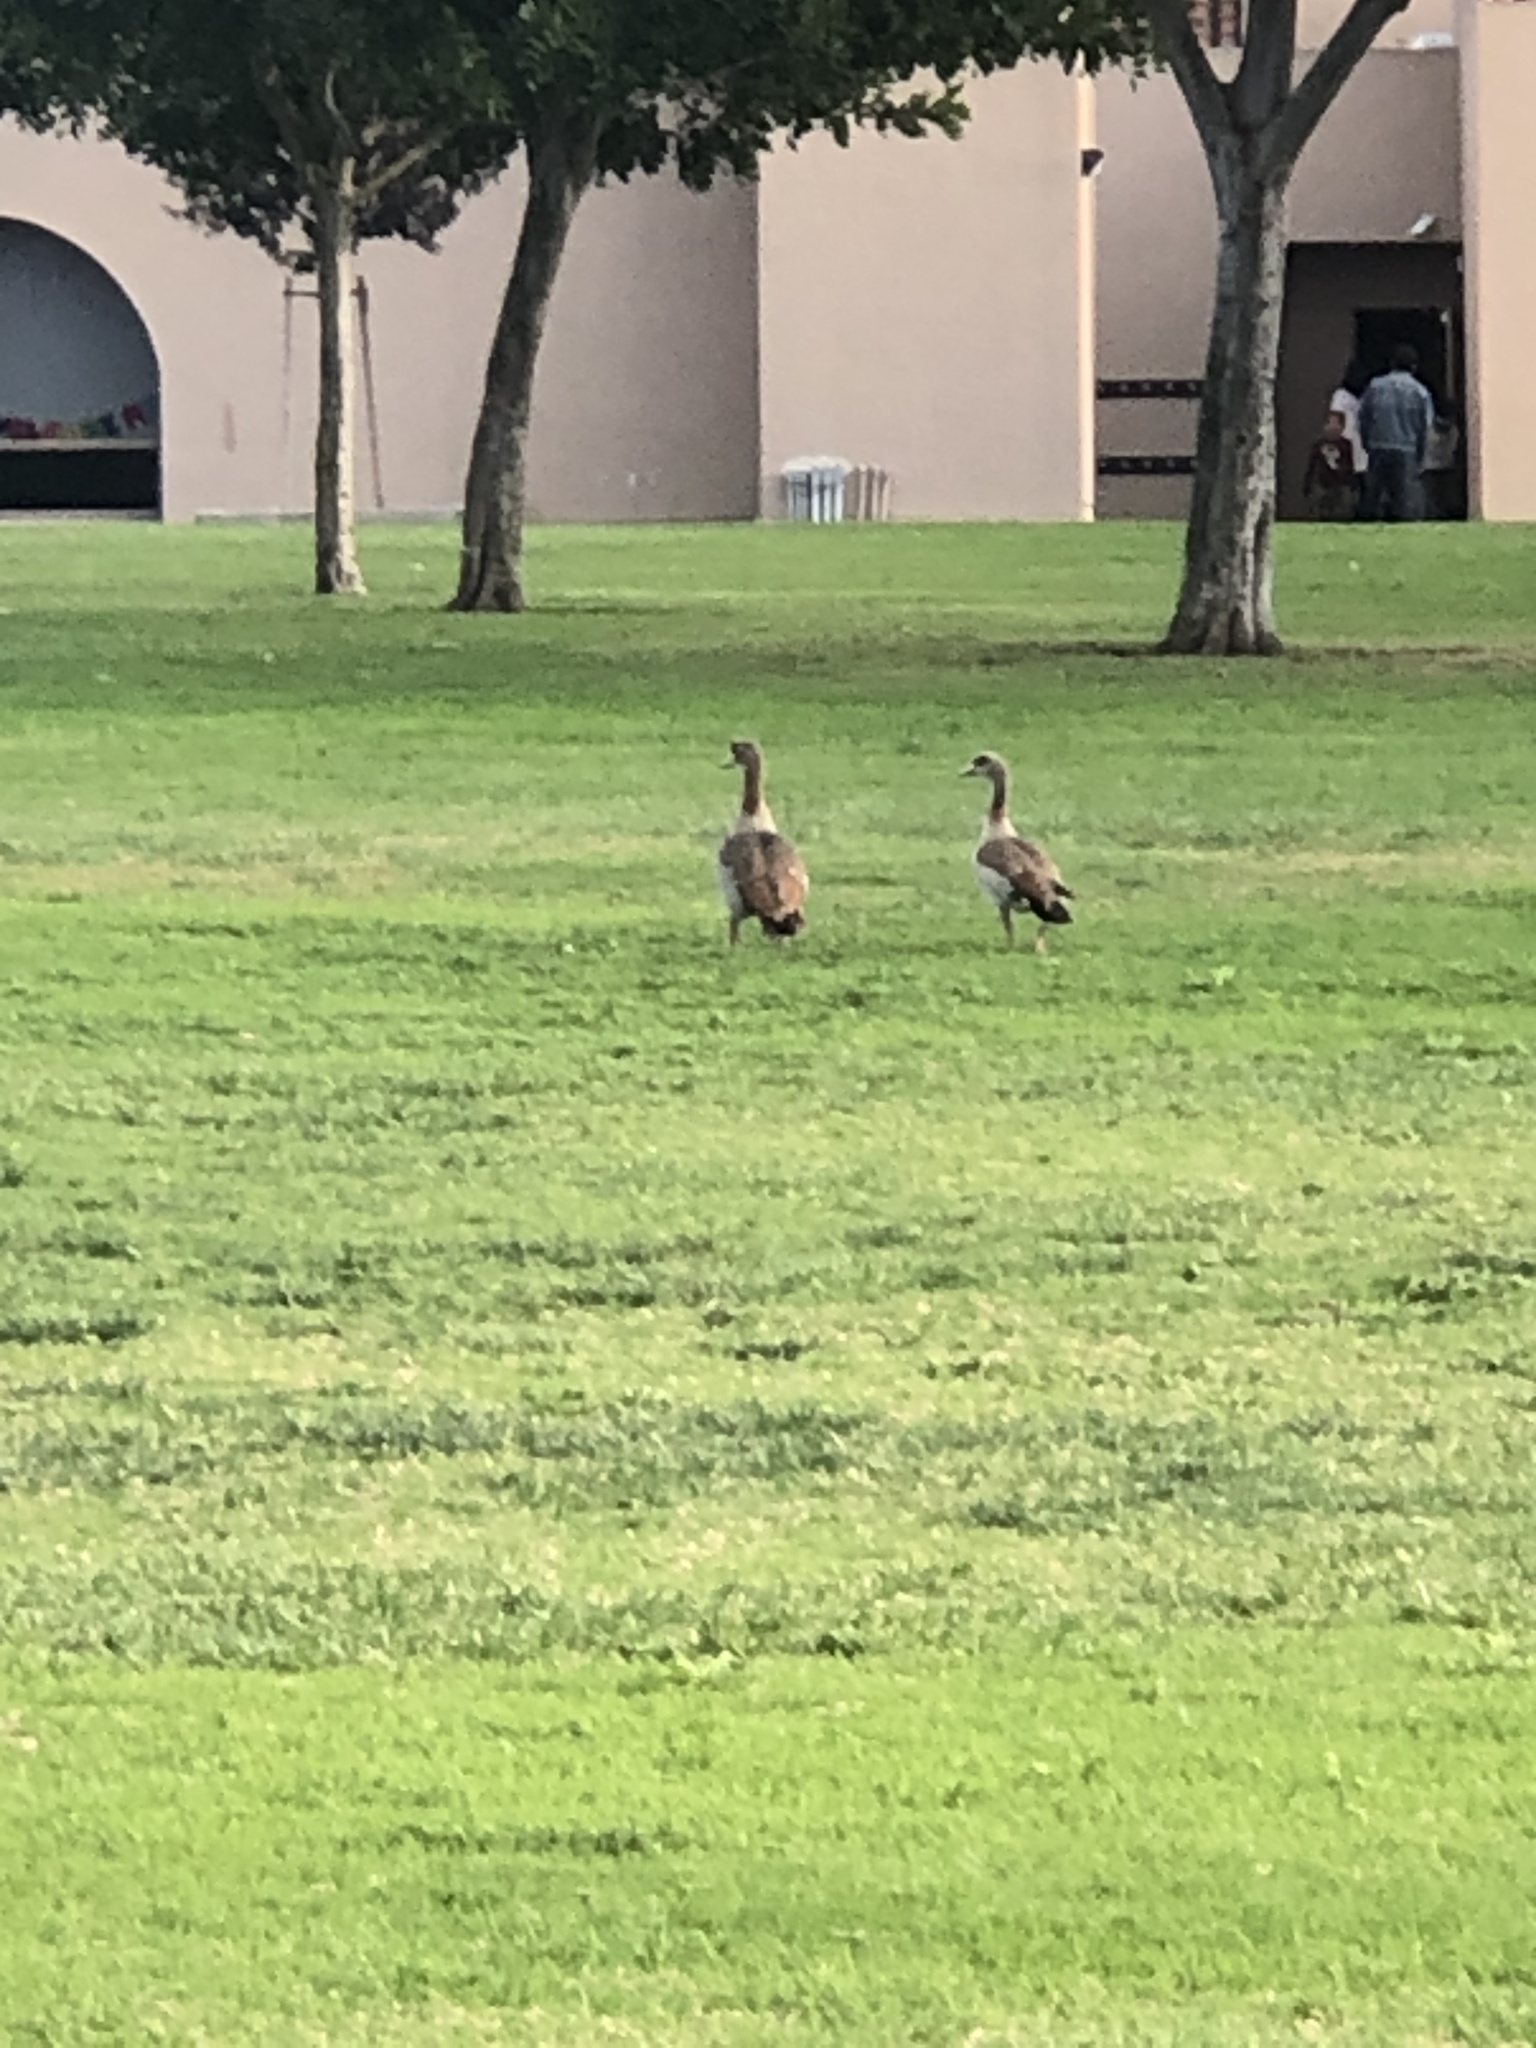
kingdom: Animalia
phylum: Chordata
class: Aves
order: Anseriformes
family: Anatidae
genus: Alopochen
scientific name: Alopochen aegyptiaca
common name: Egyptian goose
